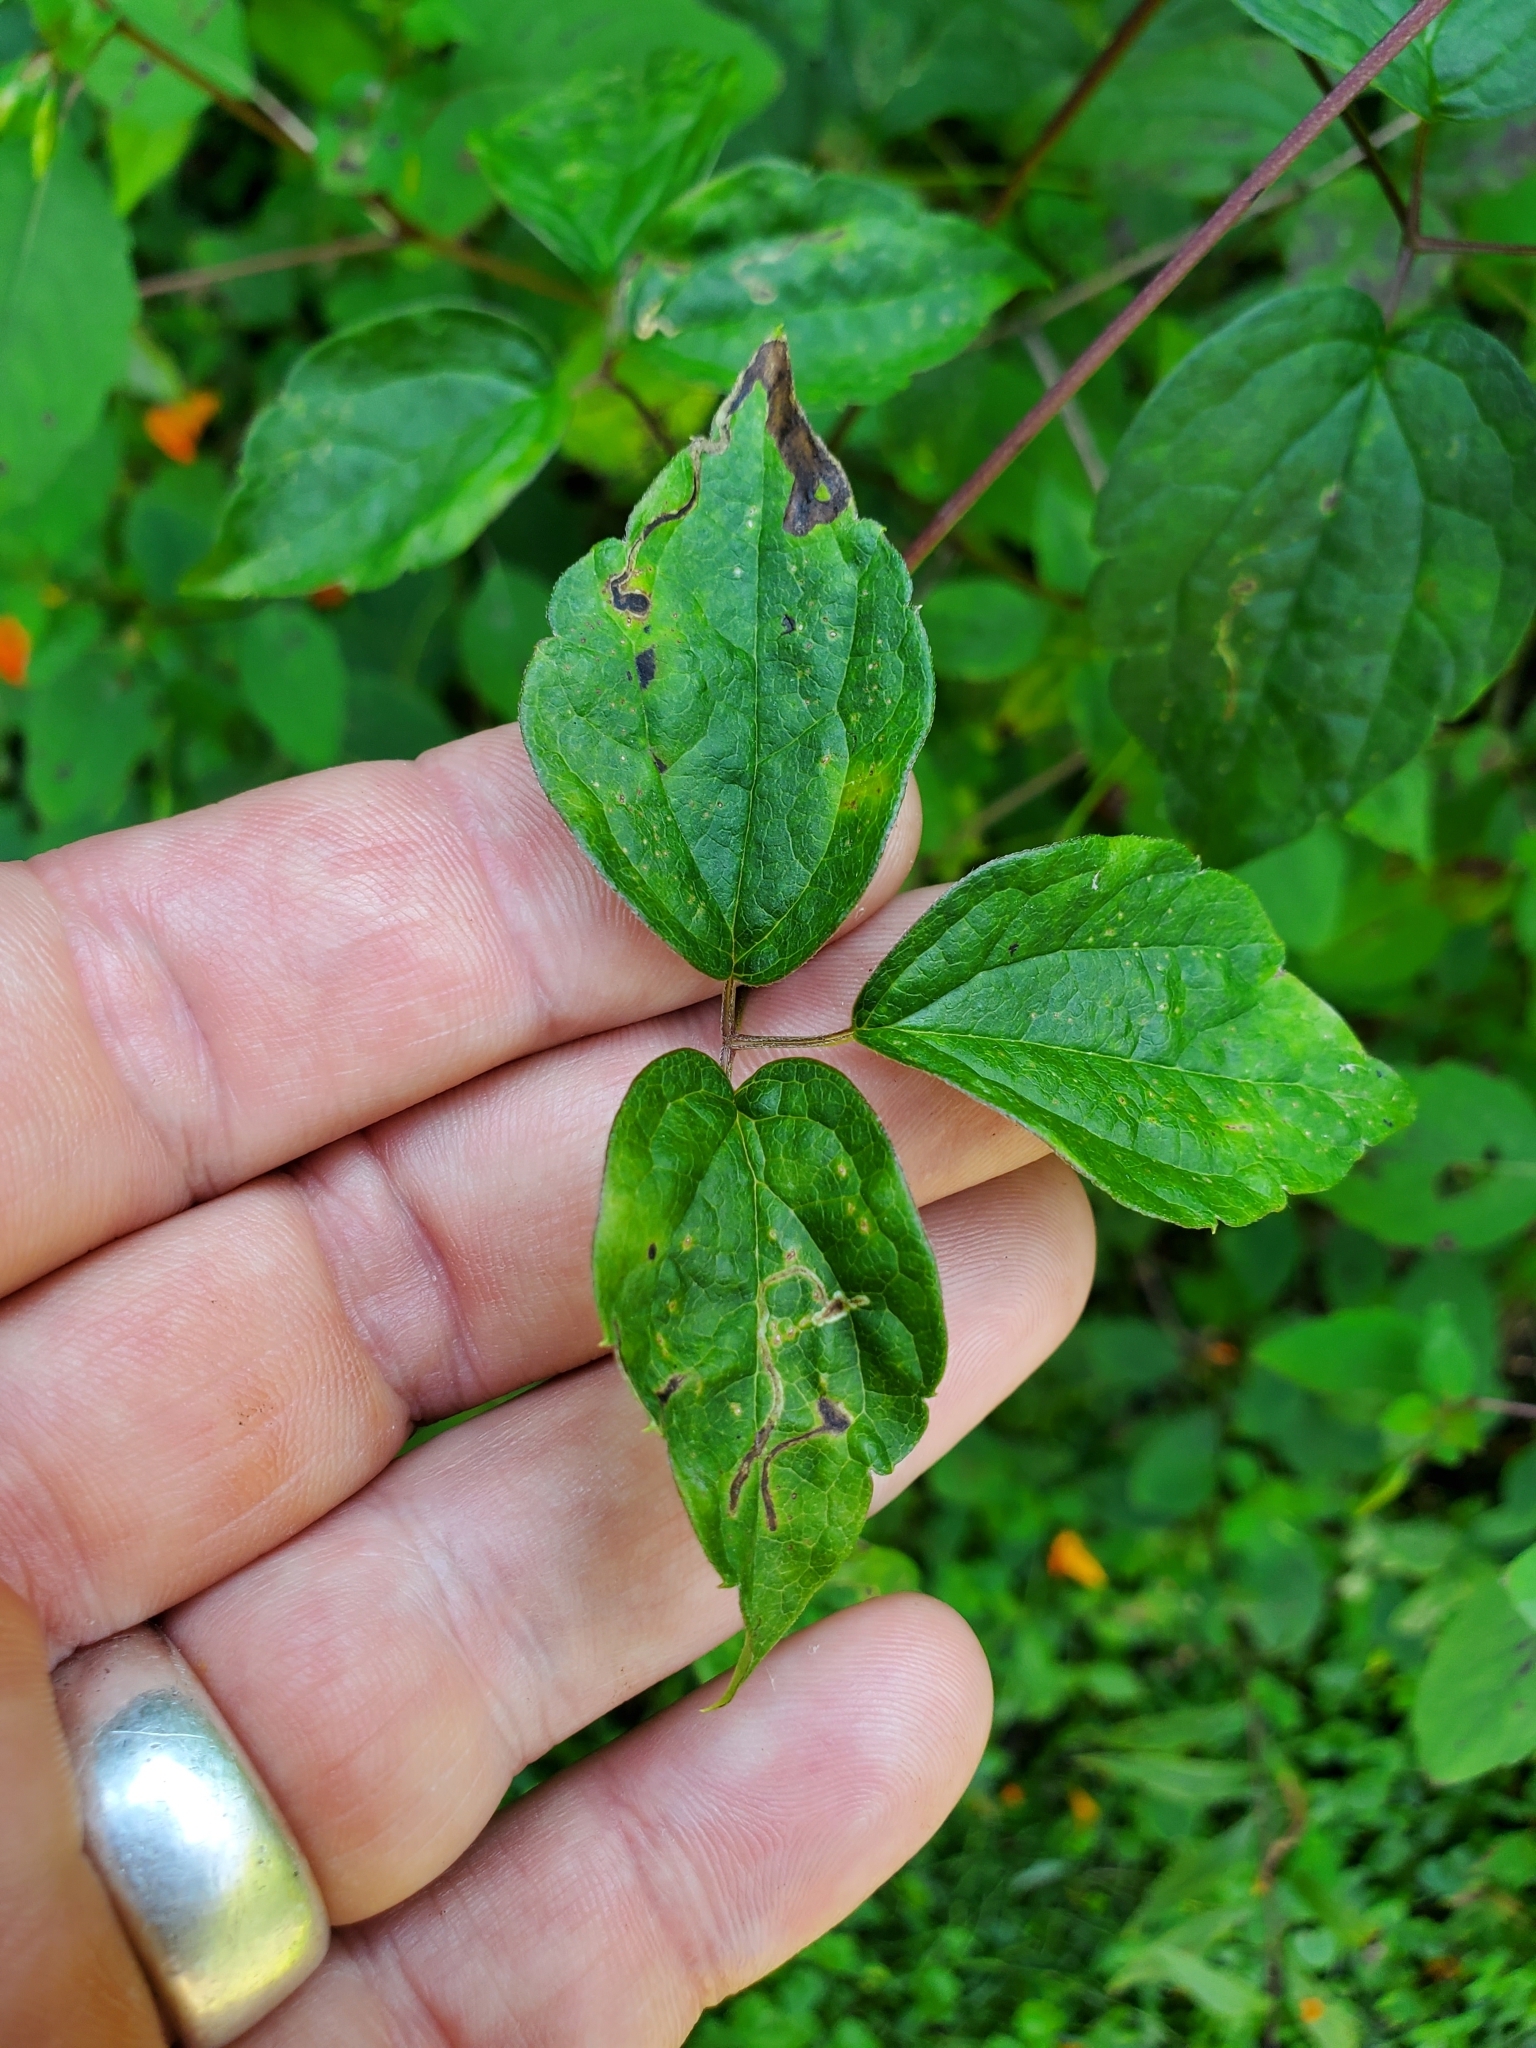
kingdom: Animalia
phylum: Arthropoda
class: Insecta
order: Diptera
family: Agromyzidae
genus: Phytomyza
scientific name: Phytomyza loewii
